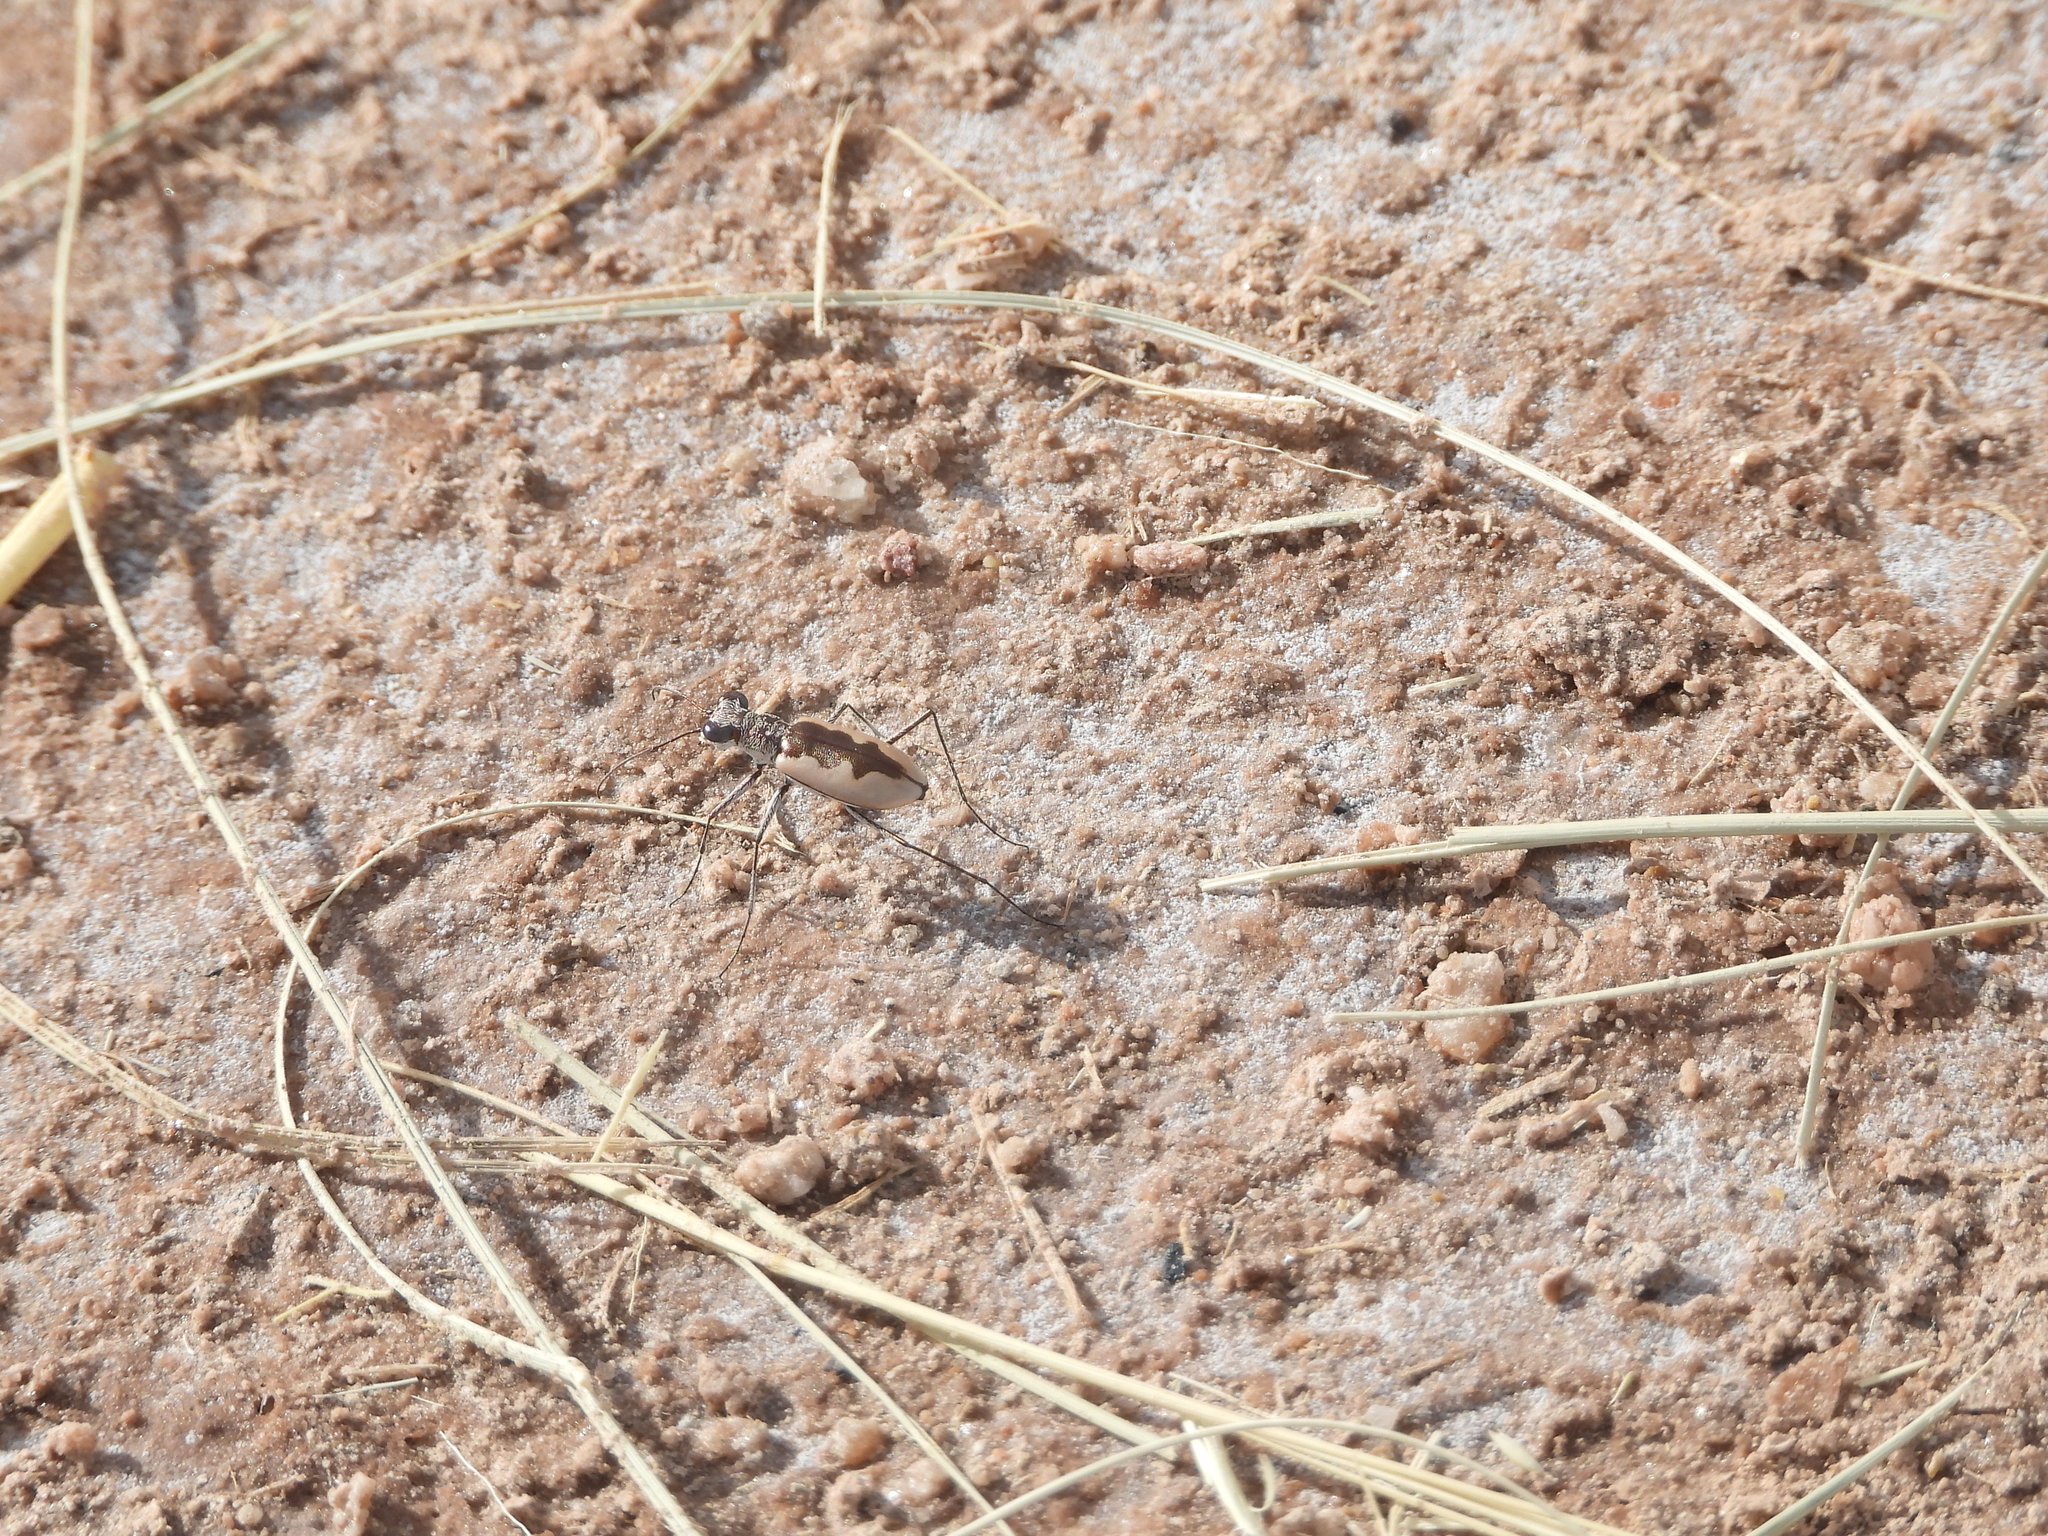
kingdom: Animalia
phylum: Arthropoda
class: Insecta
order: Coleoptera
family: Carabidae
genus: Eunota
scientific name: Eunota togata
